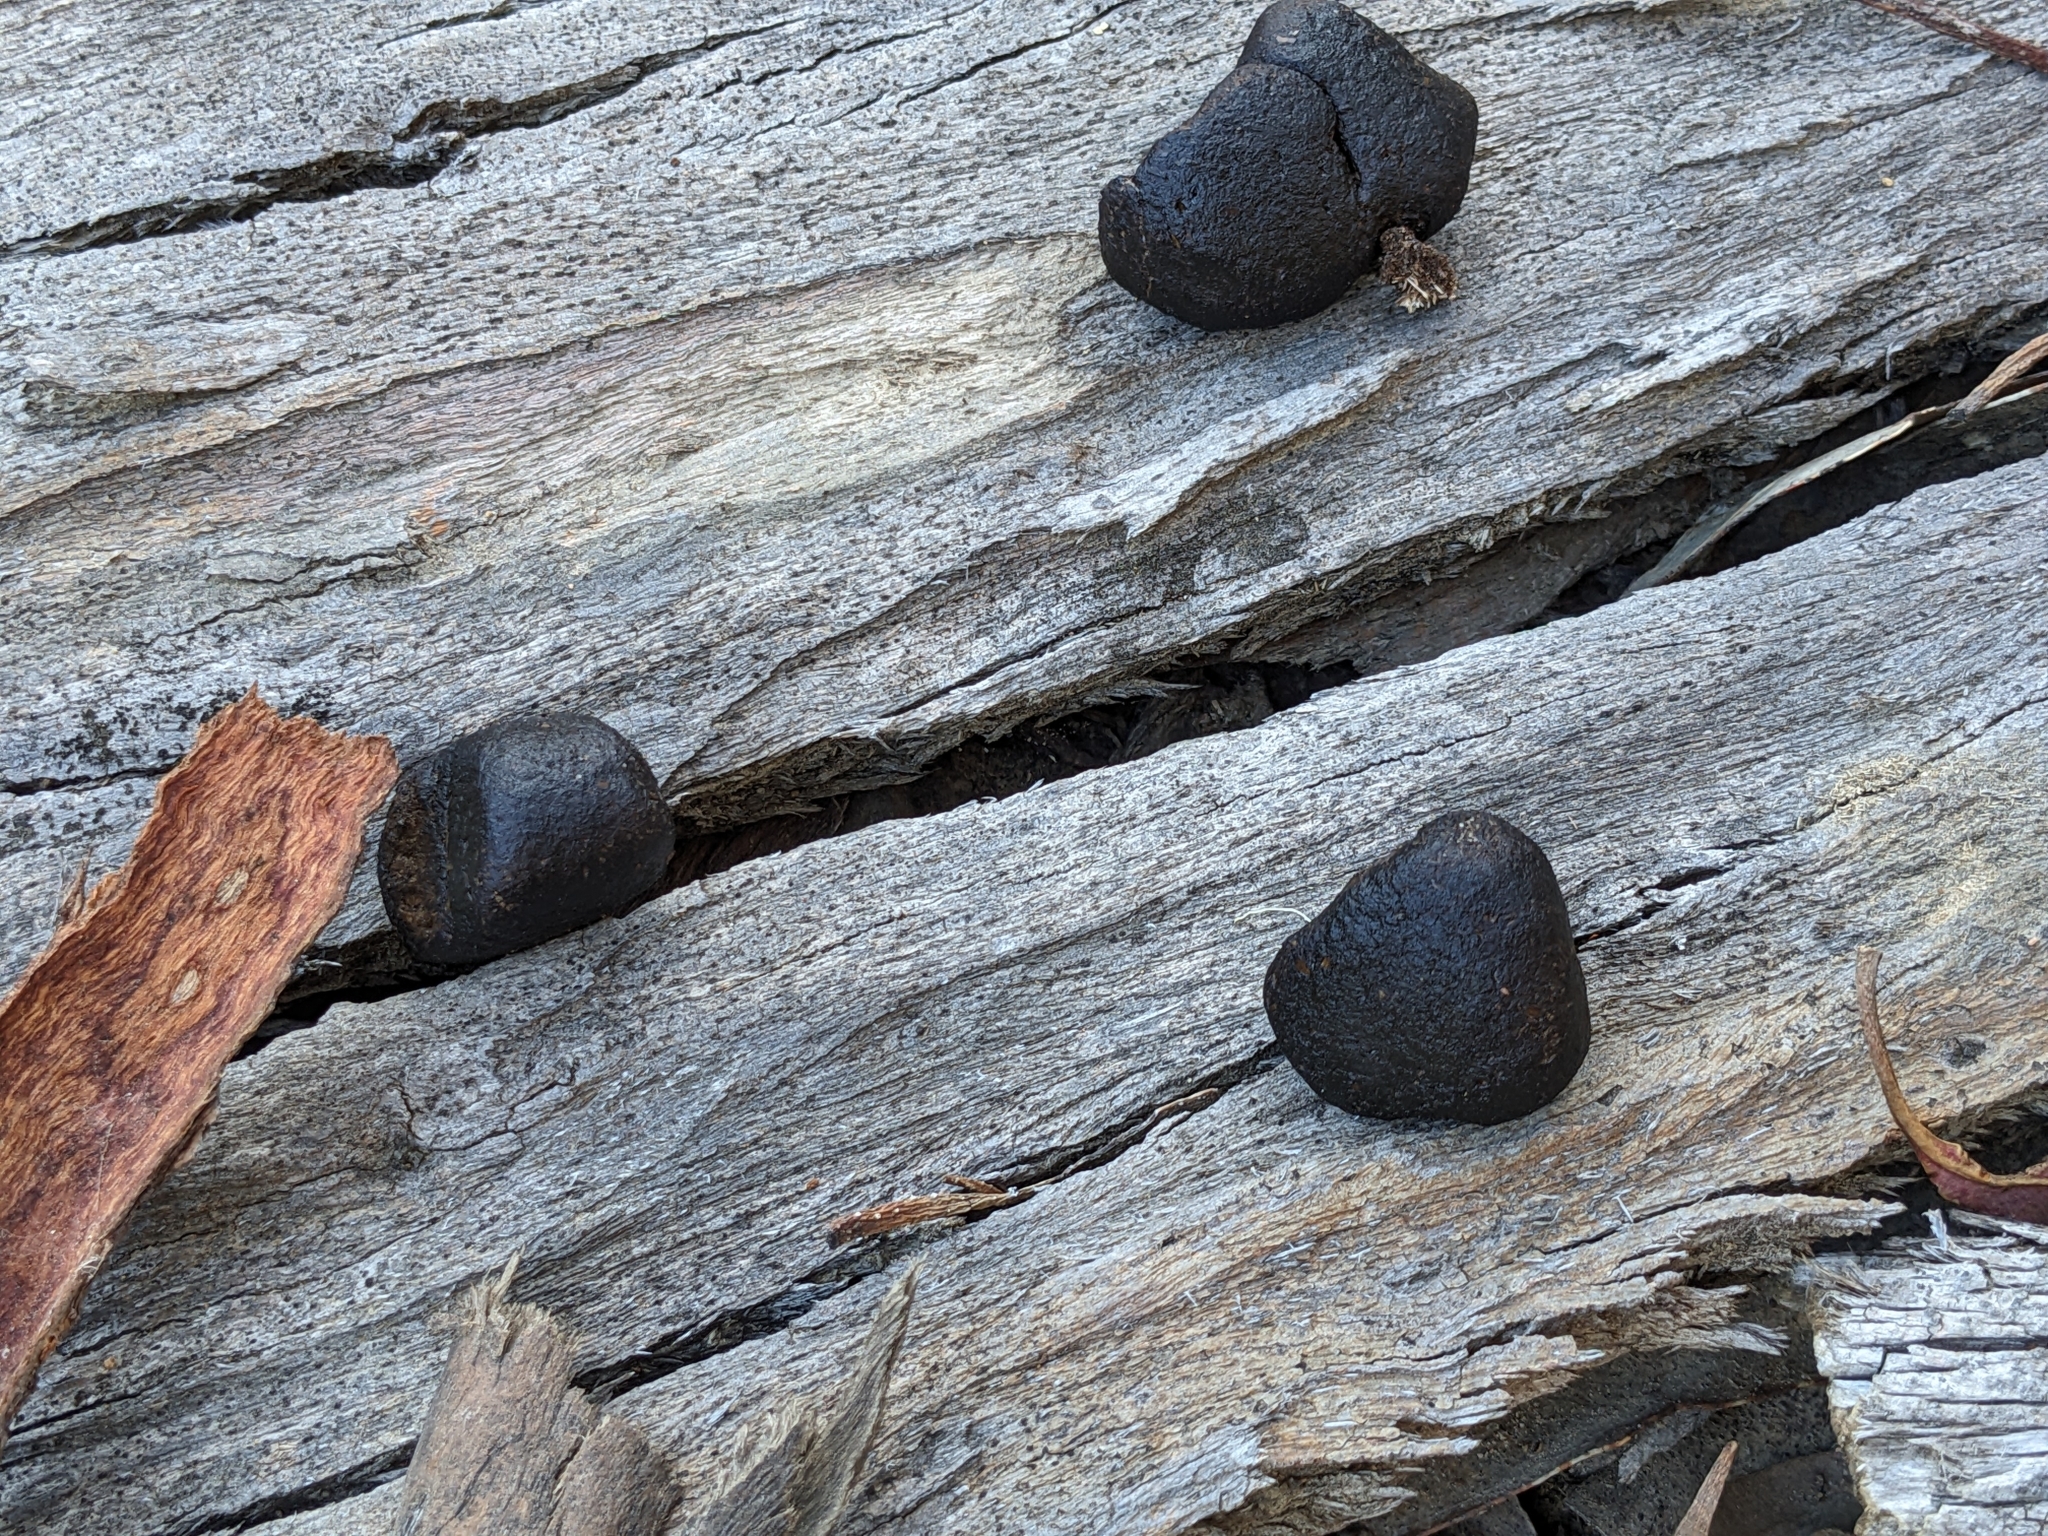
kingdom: Animalia
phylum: Chordata
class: Mammalia
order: Diprotodontia
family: Vombatidae
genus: Vombatus
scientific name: Vombatus ursinus
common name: Common wombat
